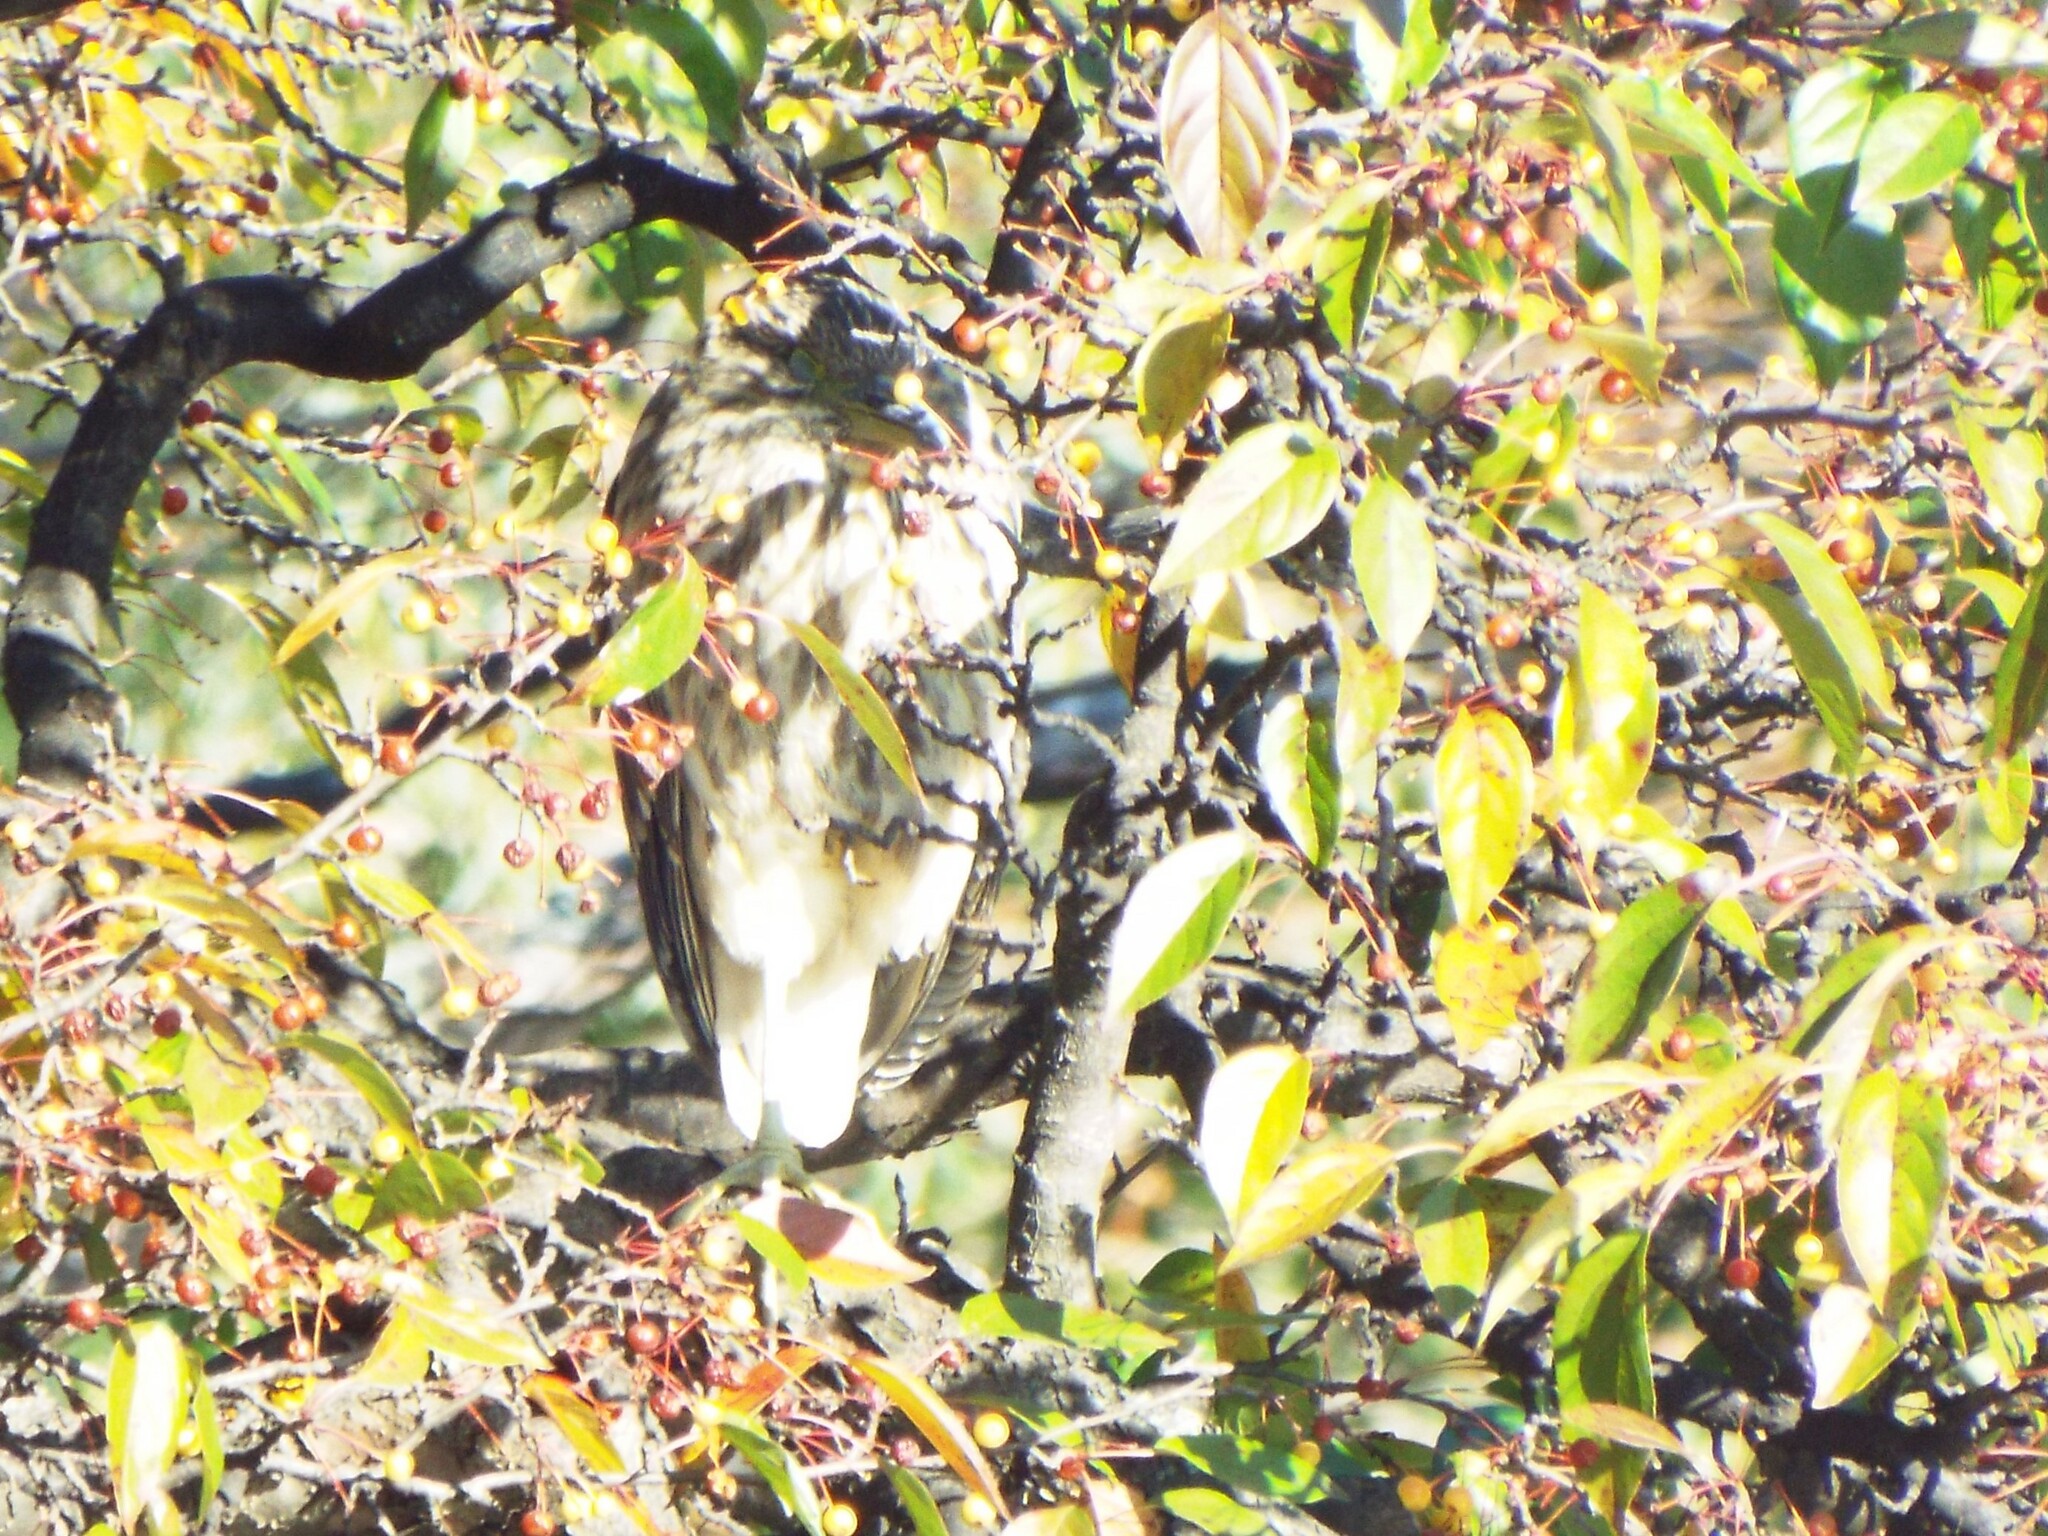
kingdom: Animalia
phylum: Chordata
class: Aves
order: Pelecaniformes
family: Ardeidae
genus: Nycticorax
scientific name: Nycticorax nycticorax
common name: Black-crowned night heron
